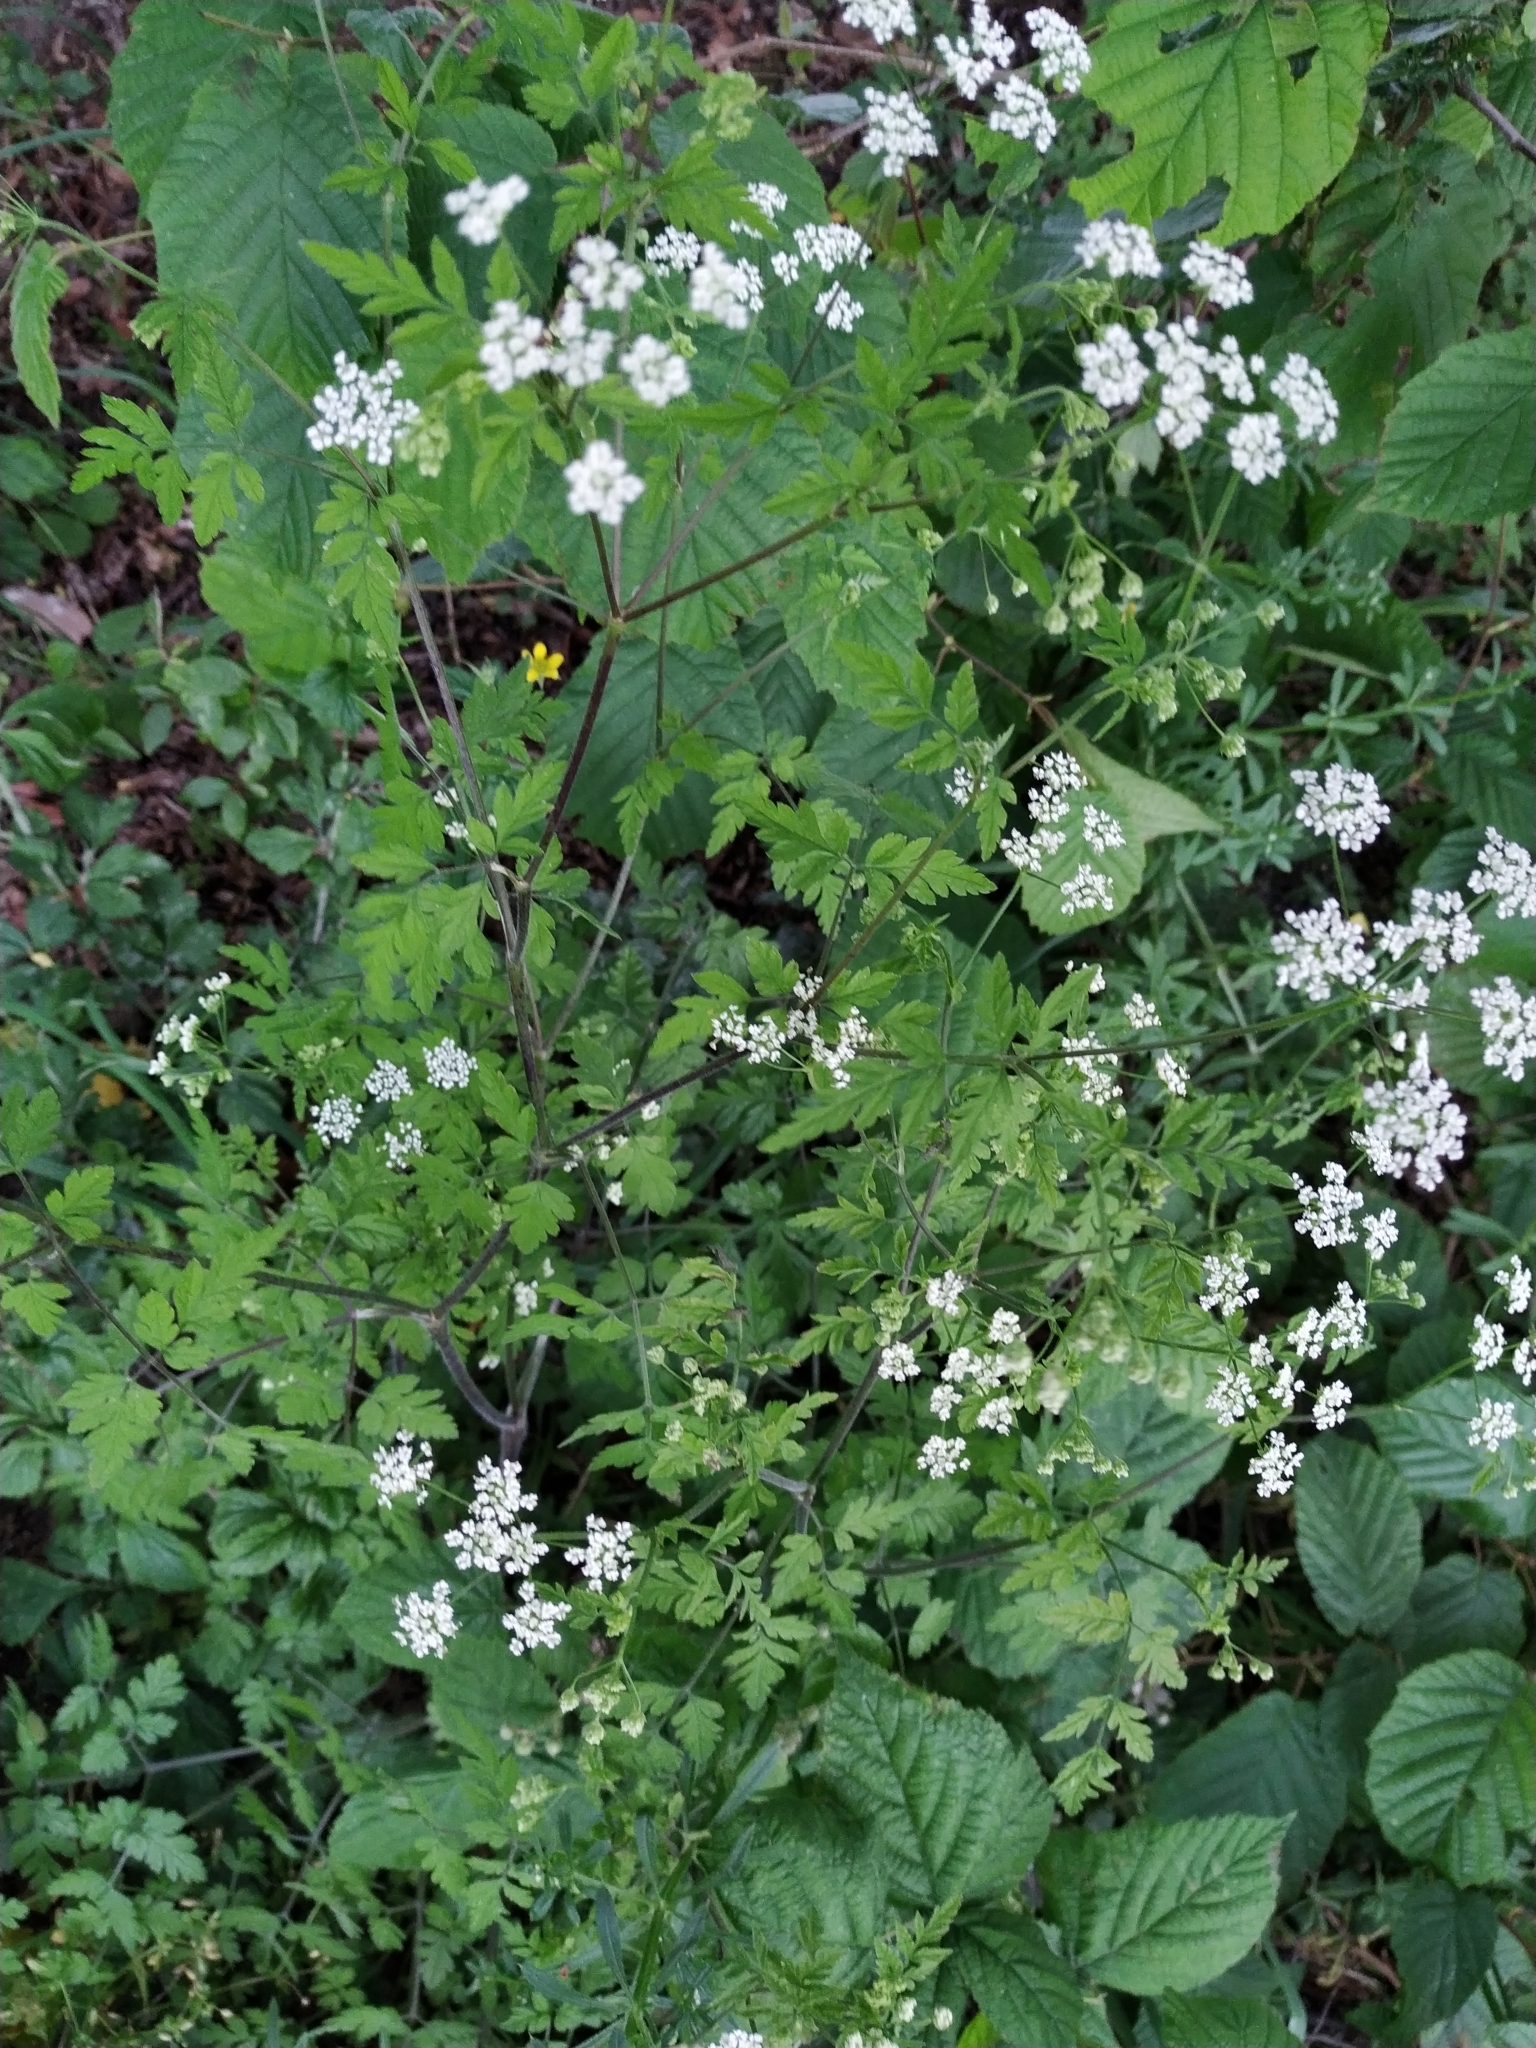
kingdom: Plantae
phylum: Tracheophyta
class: Magnoliopsida
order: Apiales
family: Apiaceae
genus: Chaerophyllum
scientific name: Chaerophyllum temulum
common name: Rough chervil
